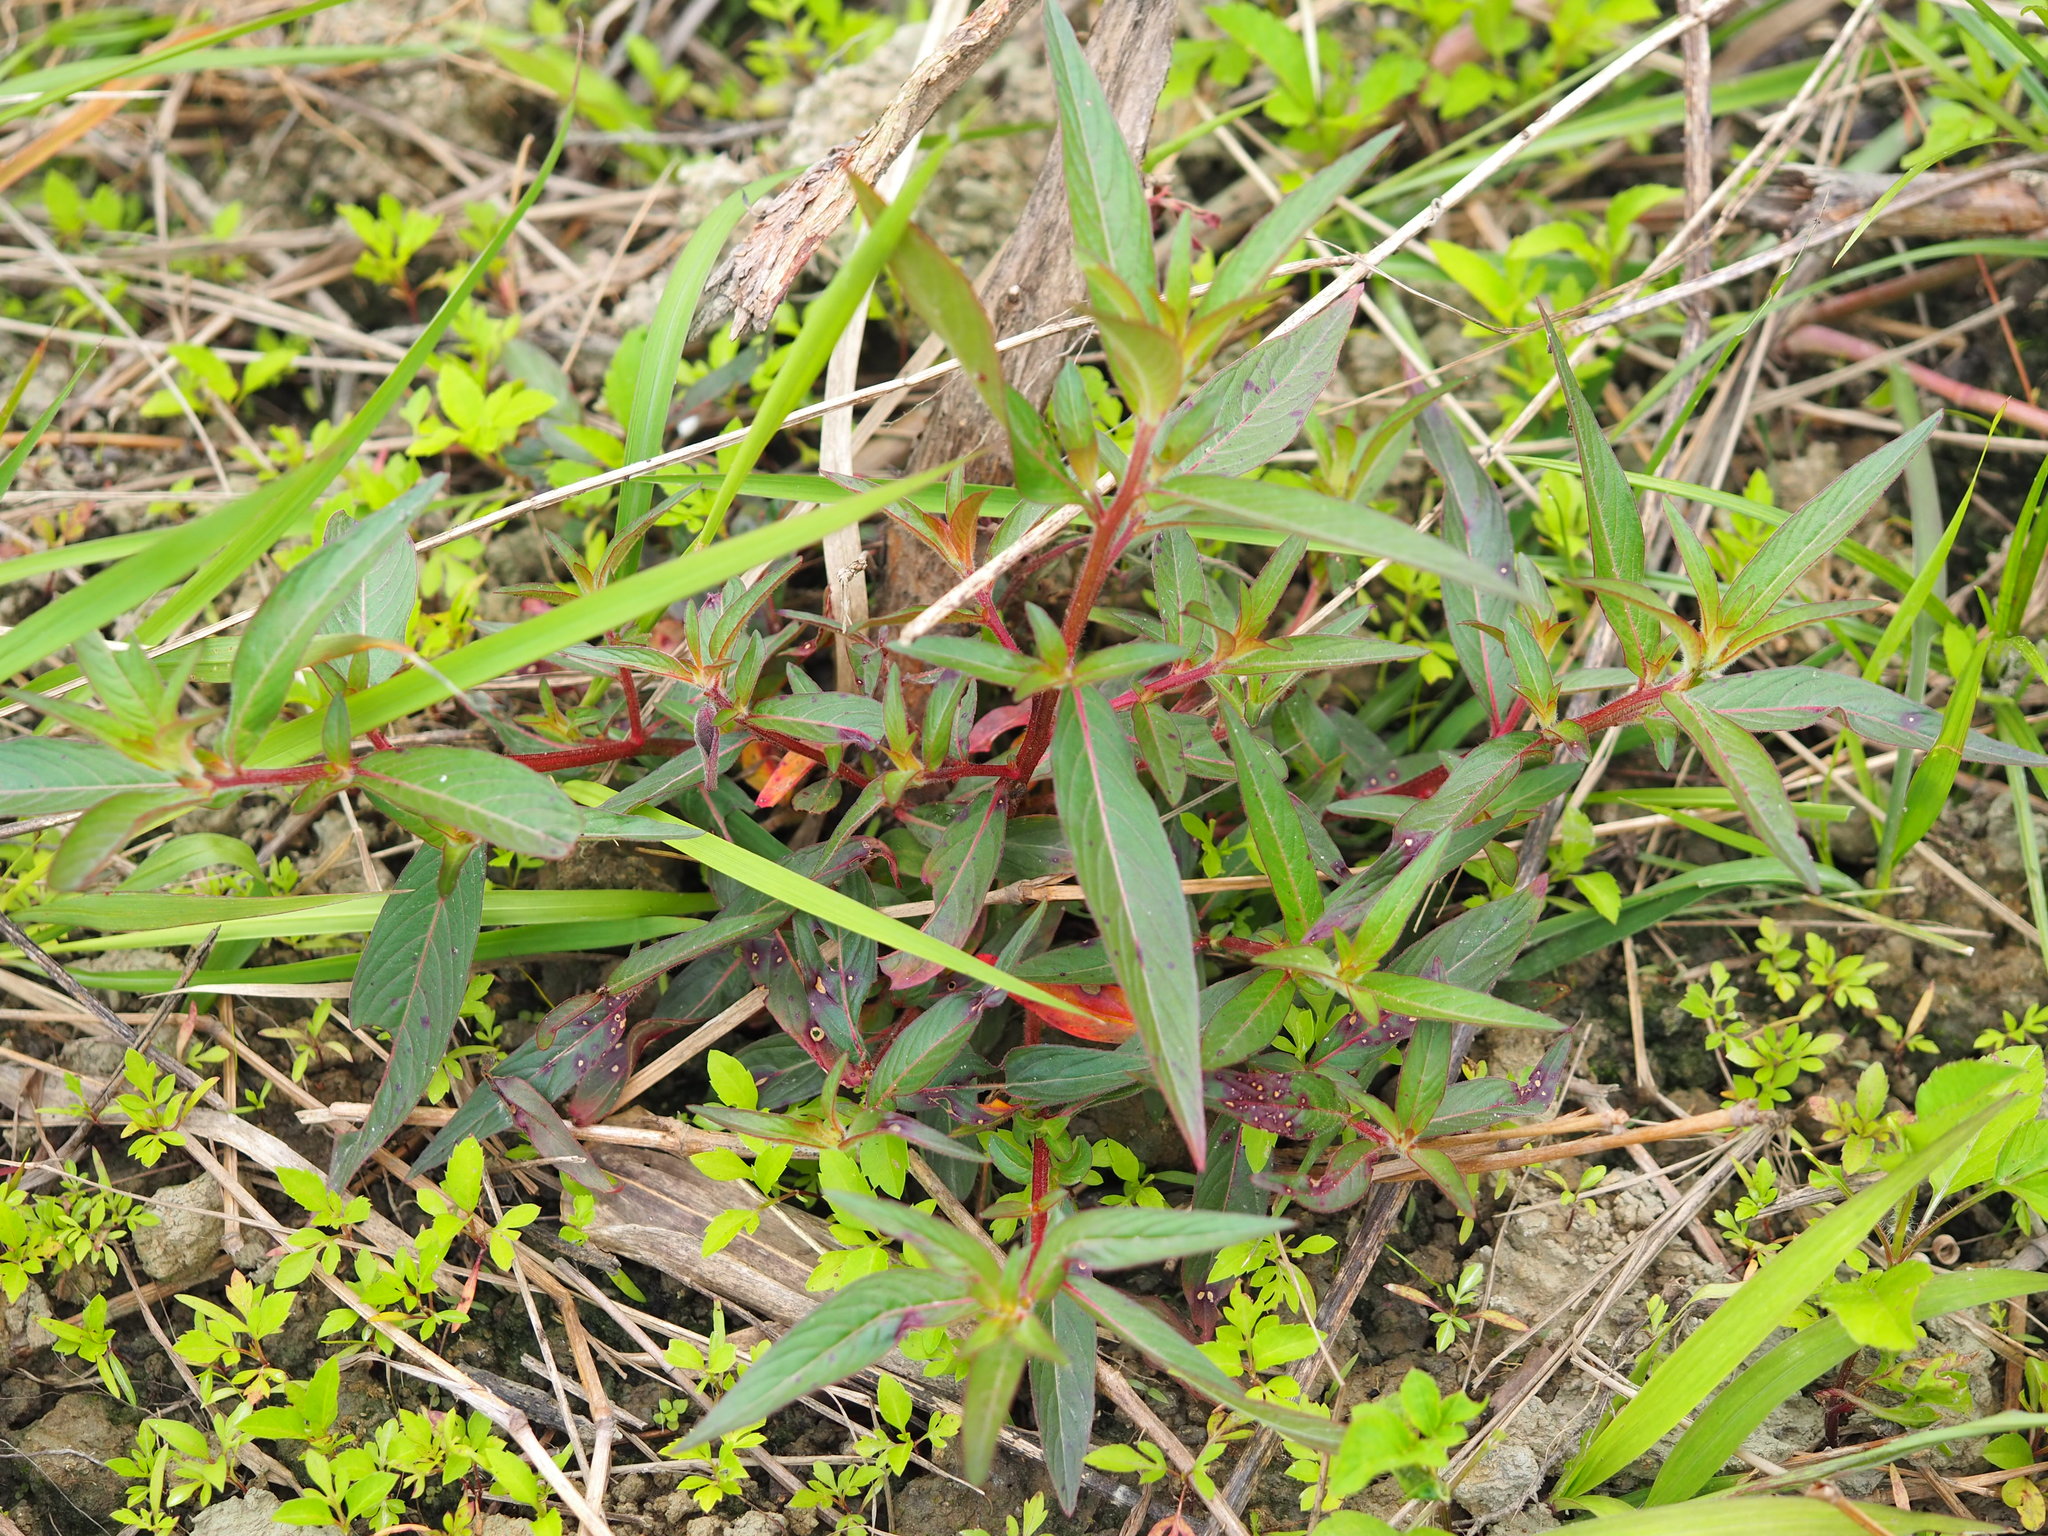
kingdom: Plantae
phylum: Tracheophyta
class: Magnoliopsida
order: Myrtales
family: Onagraceae
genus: Ludwigia
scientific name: Ludwigia octovalvis
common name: Water-primrose
